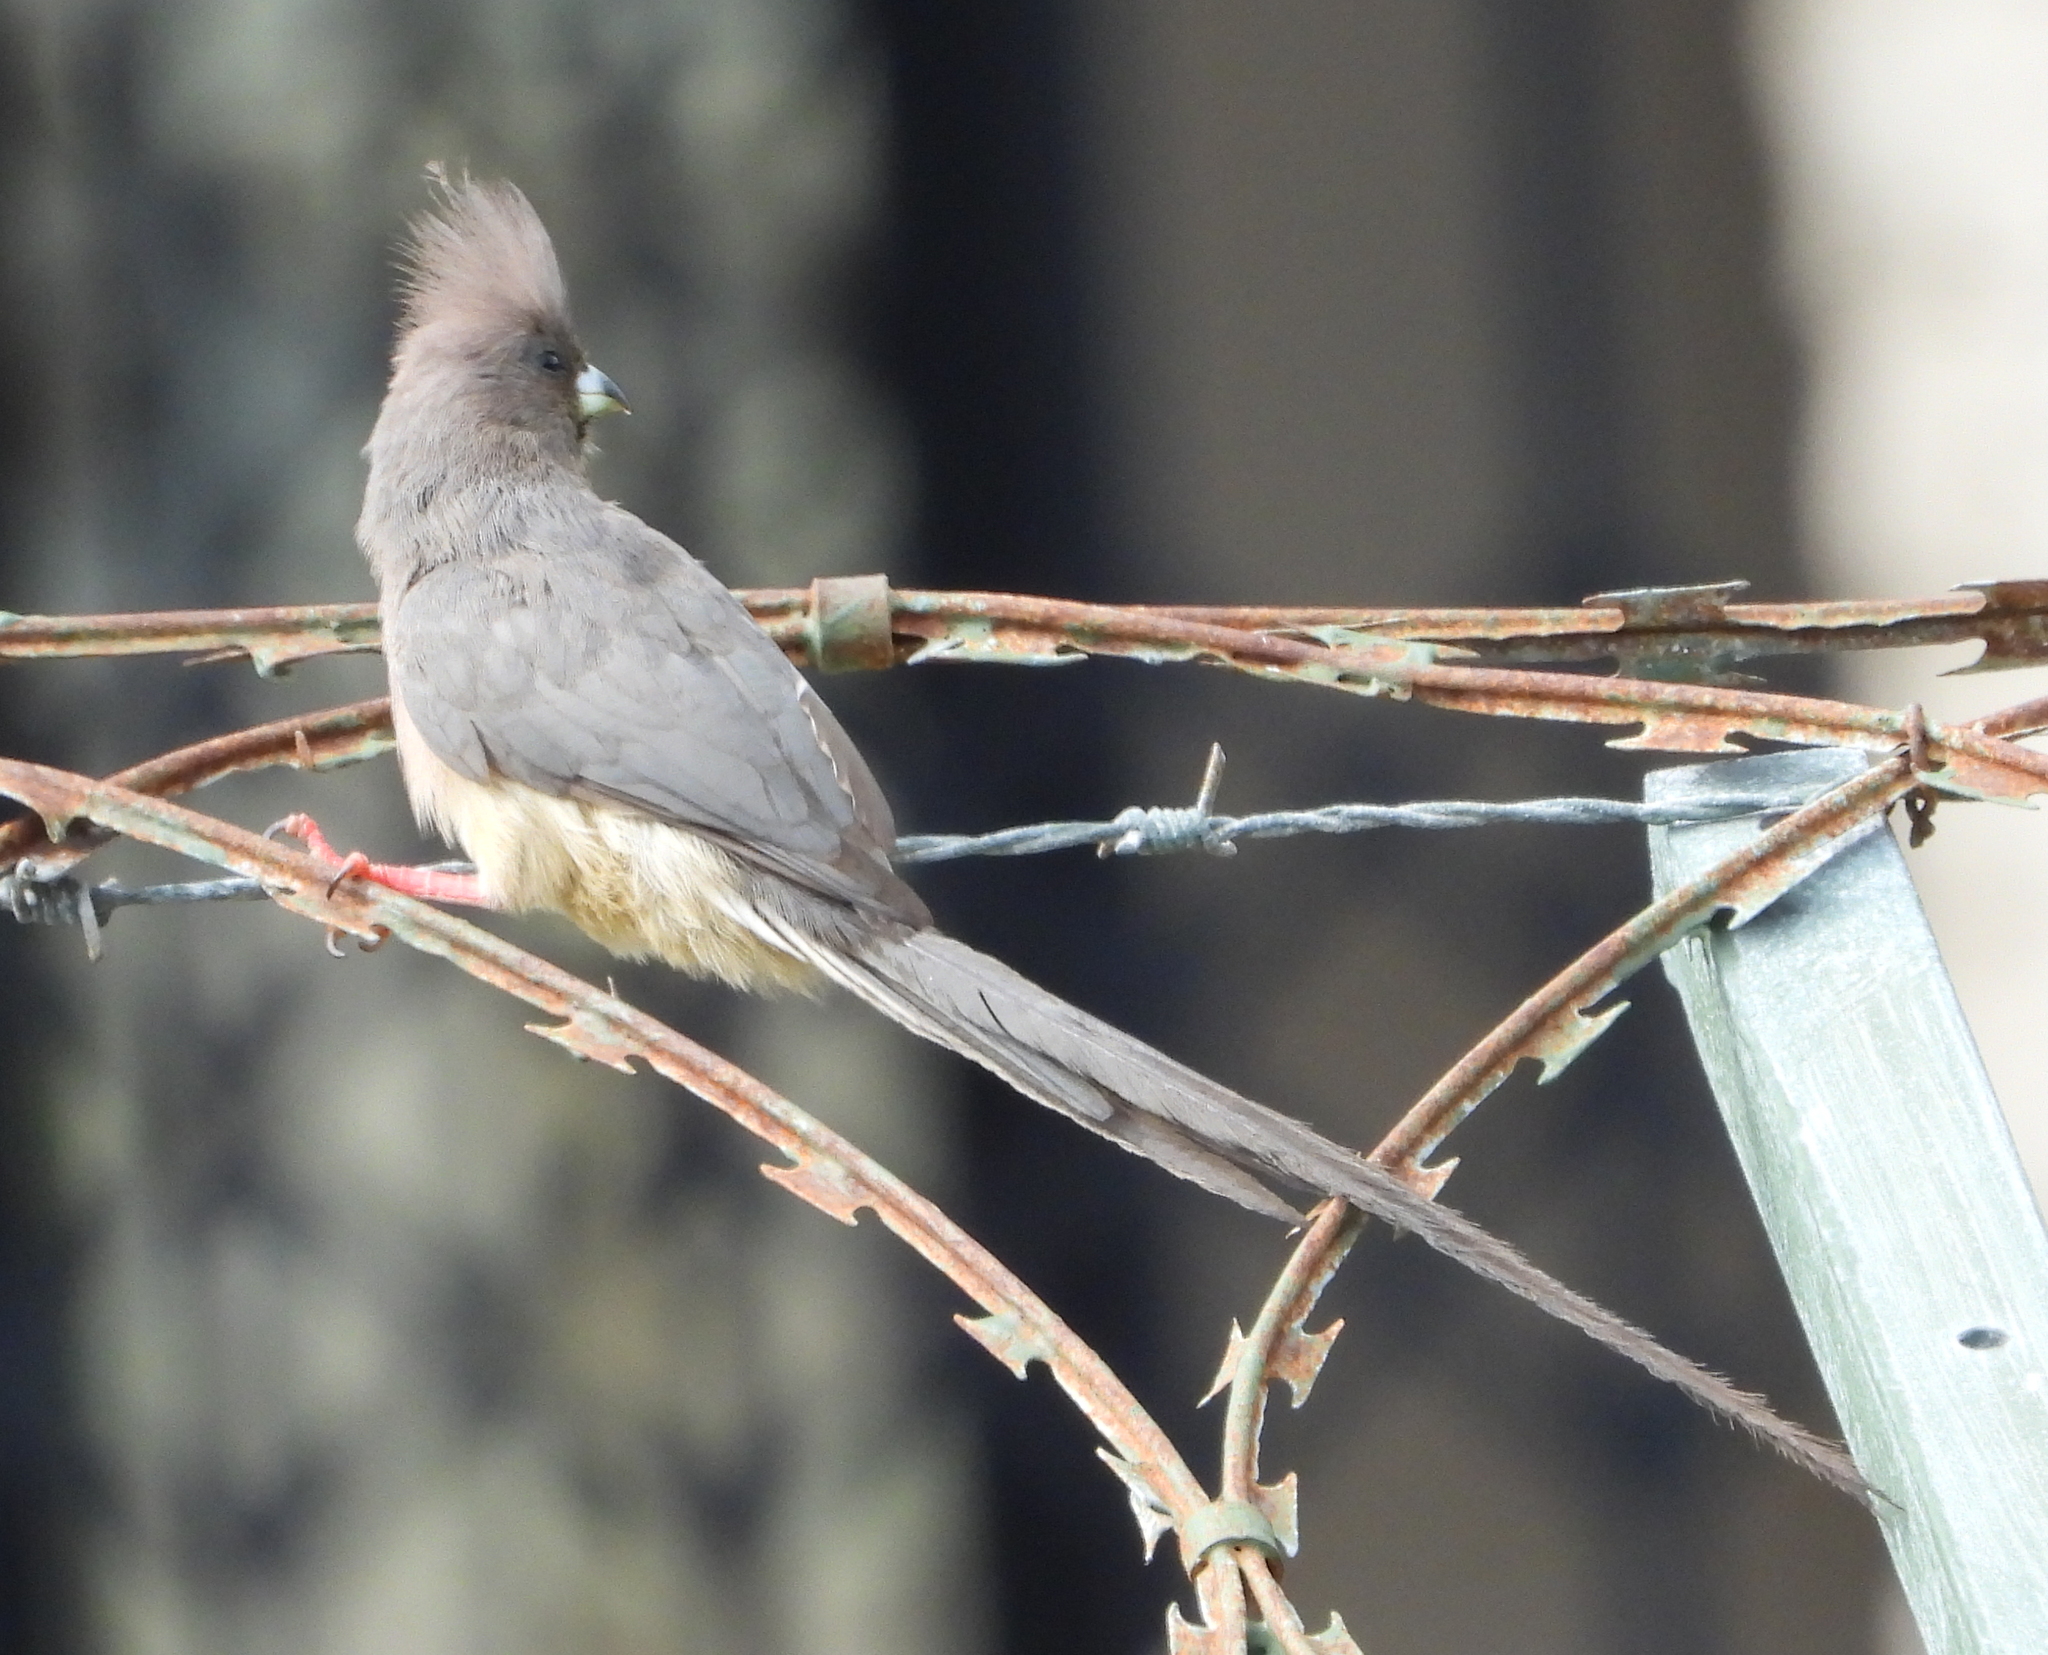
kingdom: Animalia
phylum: Chordata
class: Aves
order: Coliiformes
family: Coliidae
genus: Colius
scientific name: Colius colius
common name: White-backed mousebird
